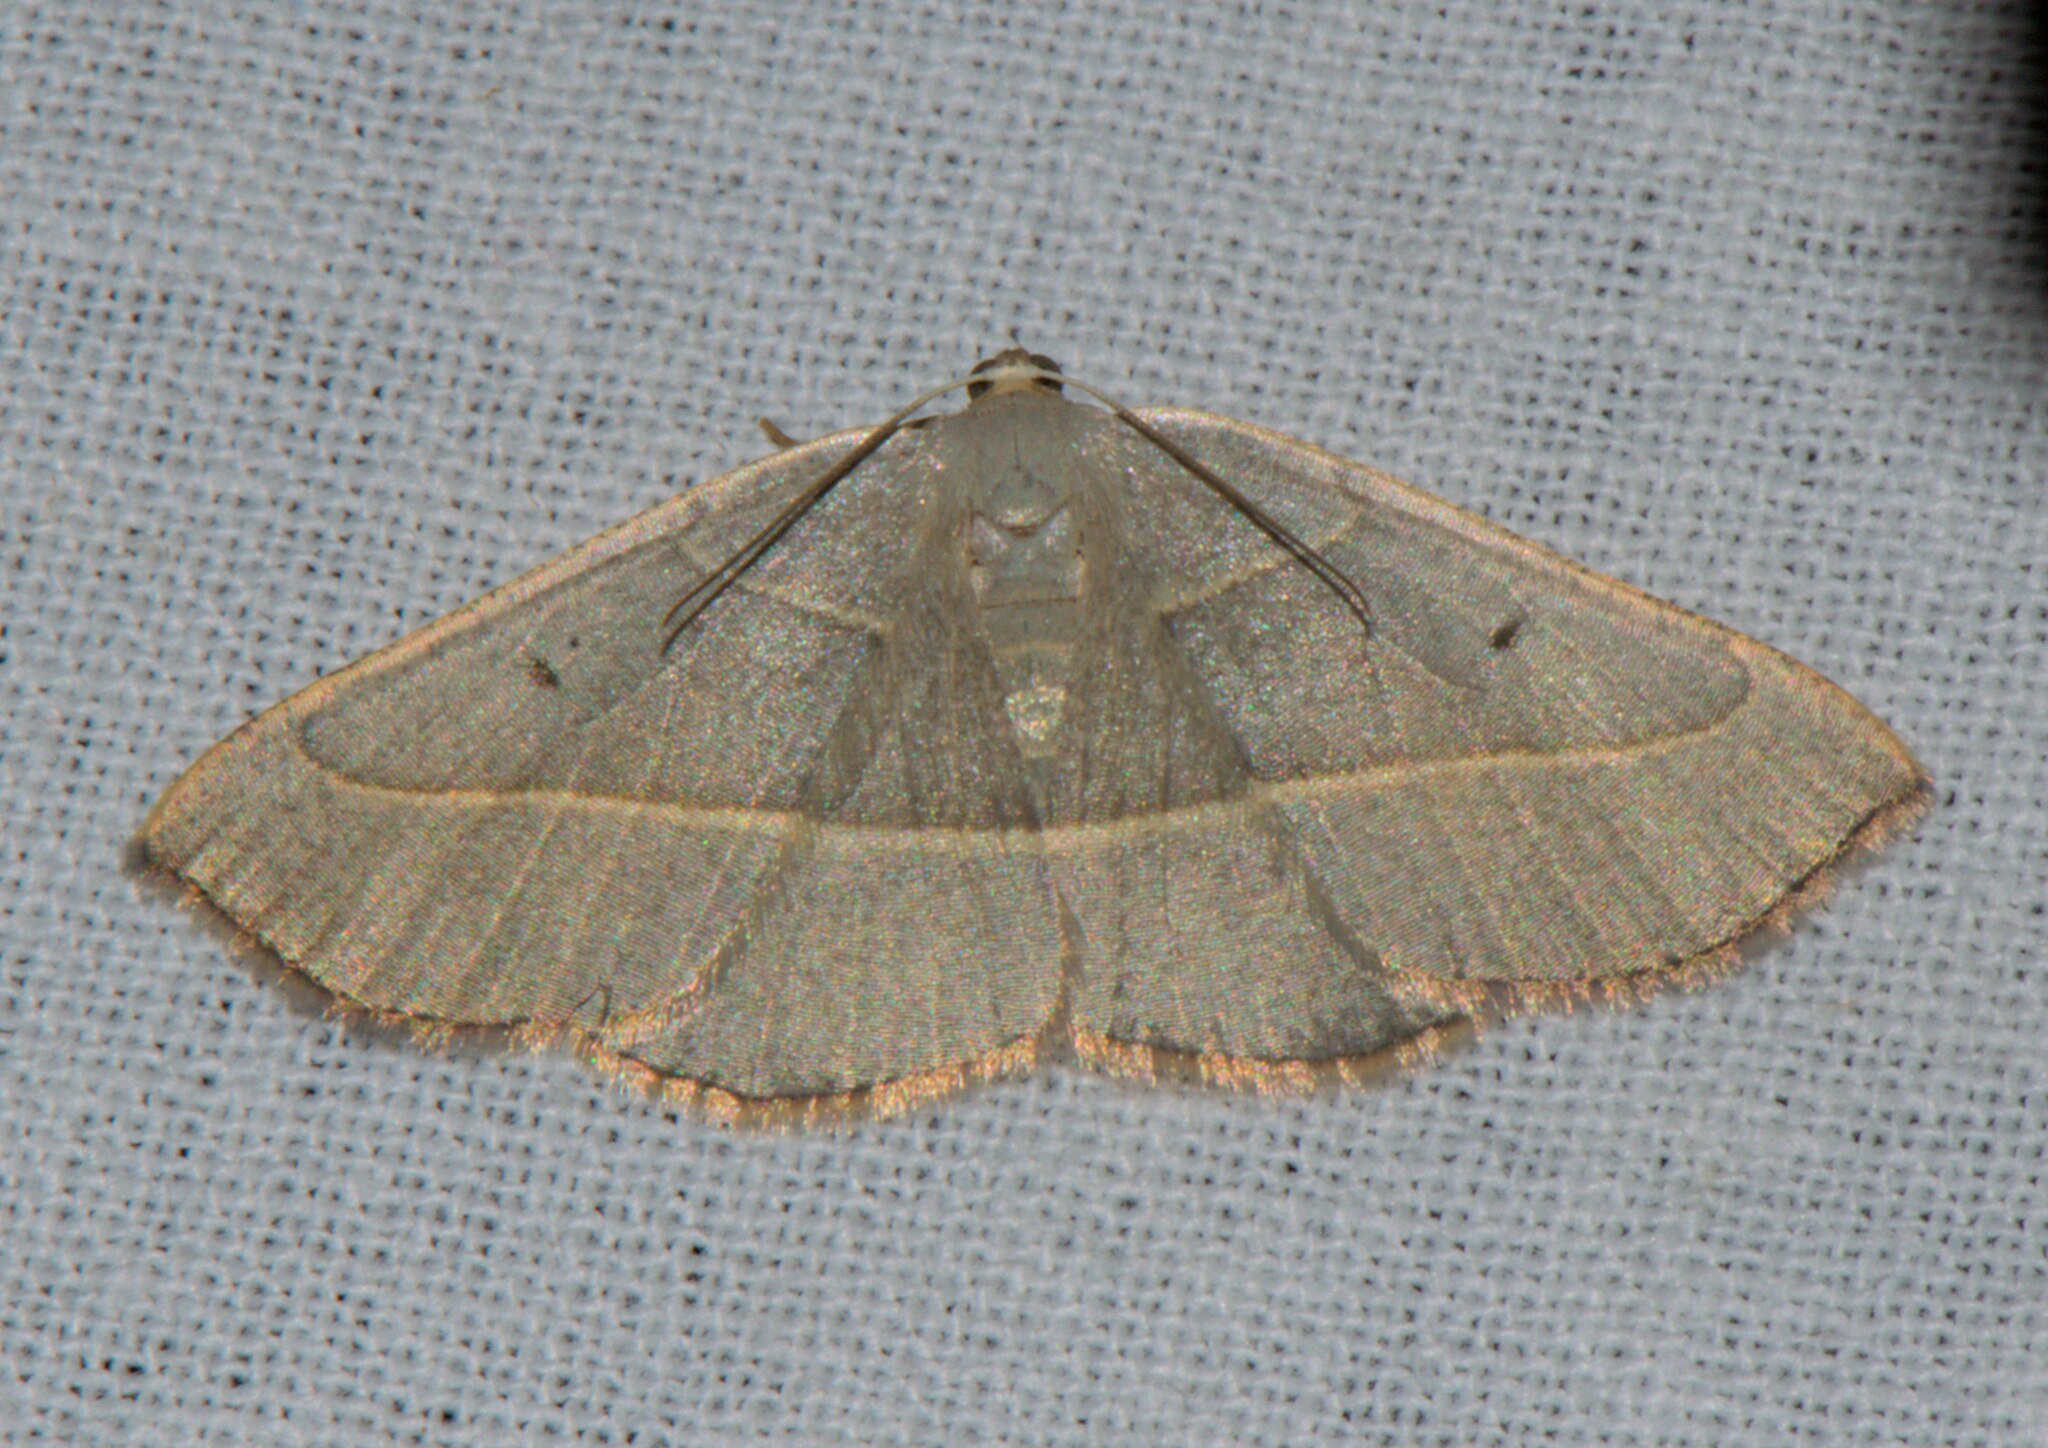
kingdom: Animalia
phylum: Arthropoda
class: Insecta
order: Lepidoptera
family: Geometridae
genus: Nothomiza
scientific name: Nothomiza achromaria
